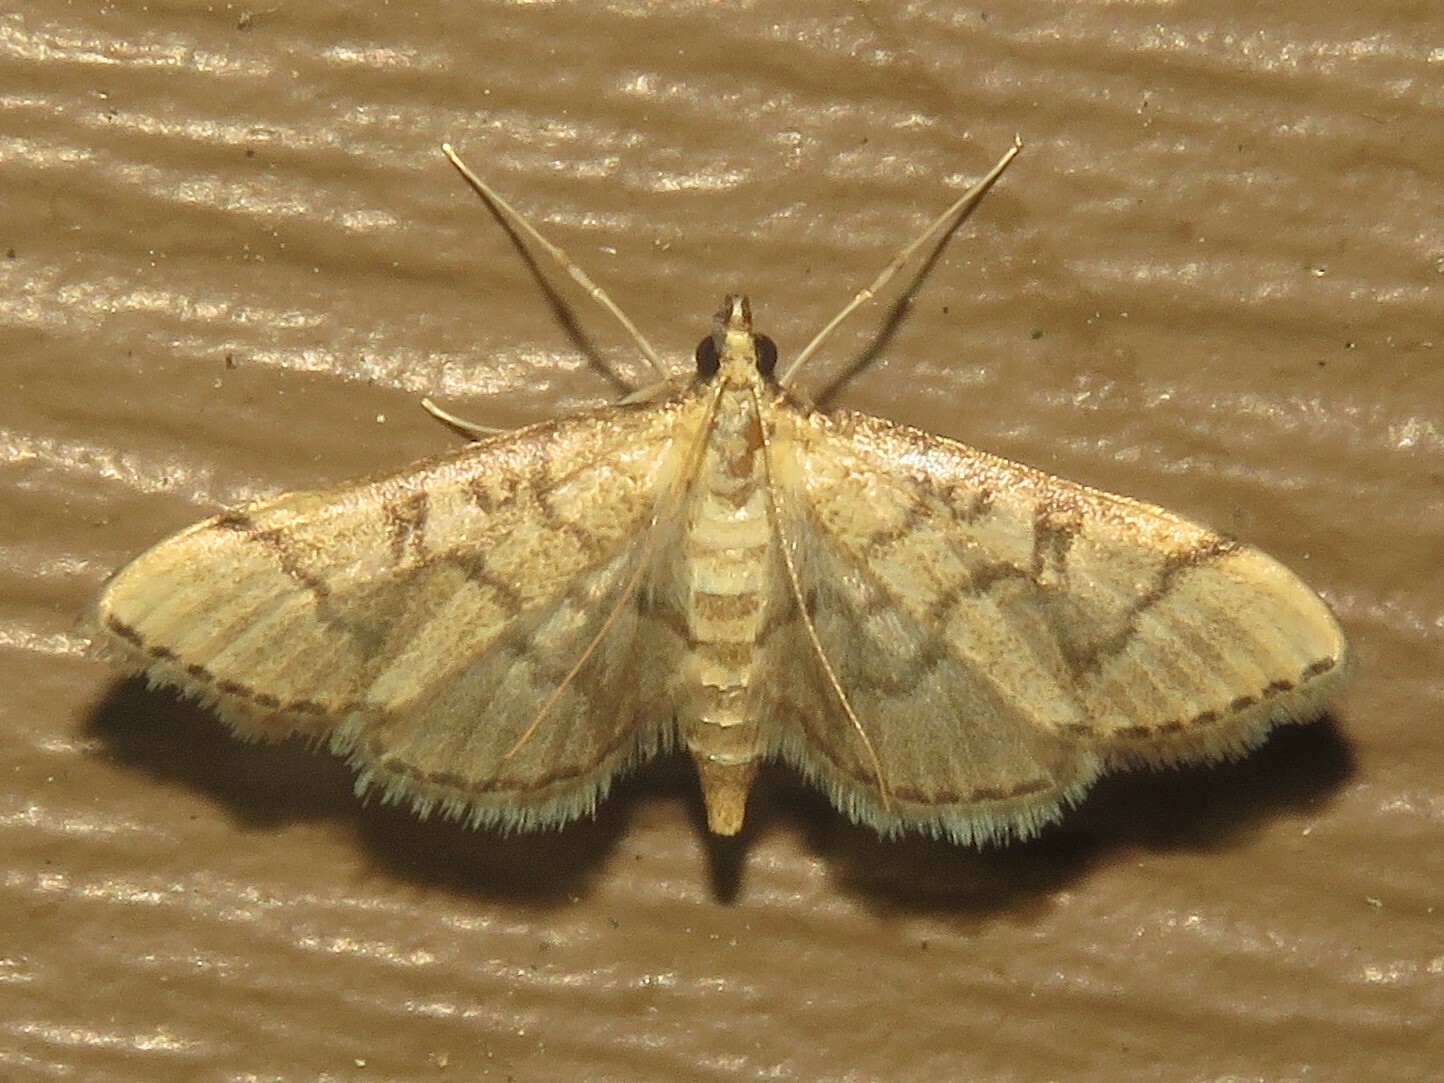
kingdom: Animalia
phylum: Arthropoda
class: Insecta
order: Lepidoptera
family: Crambidae
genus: Lamprosema
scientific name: Lamprosema Blepharomastix ranalis
